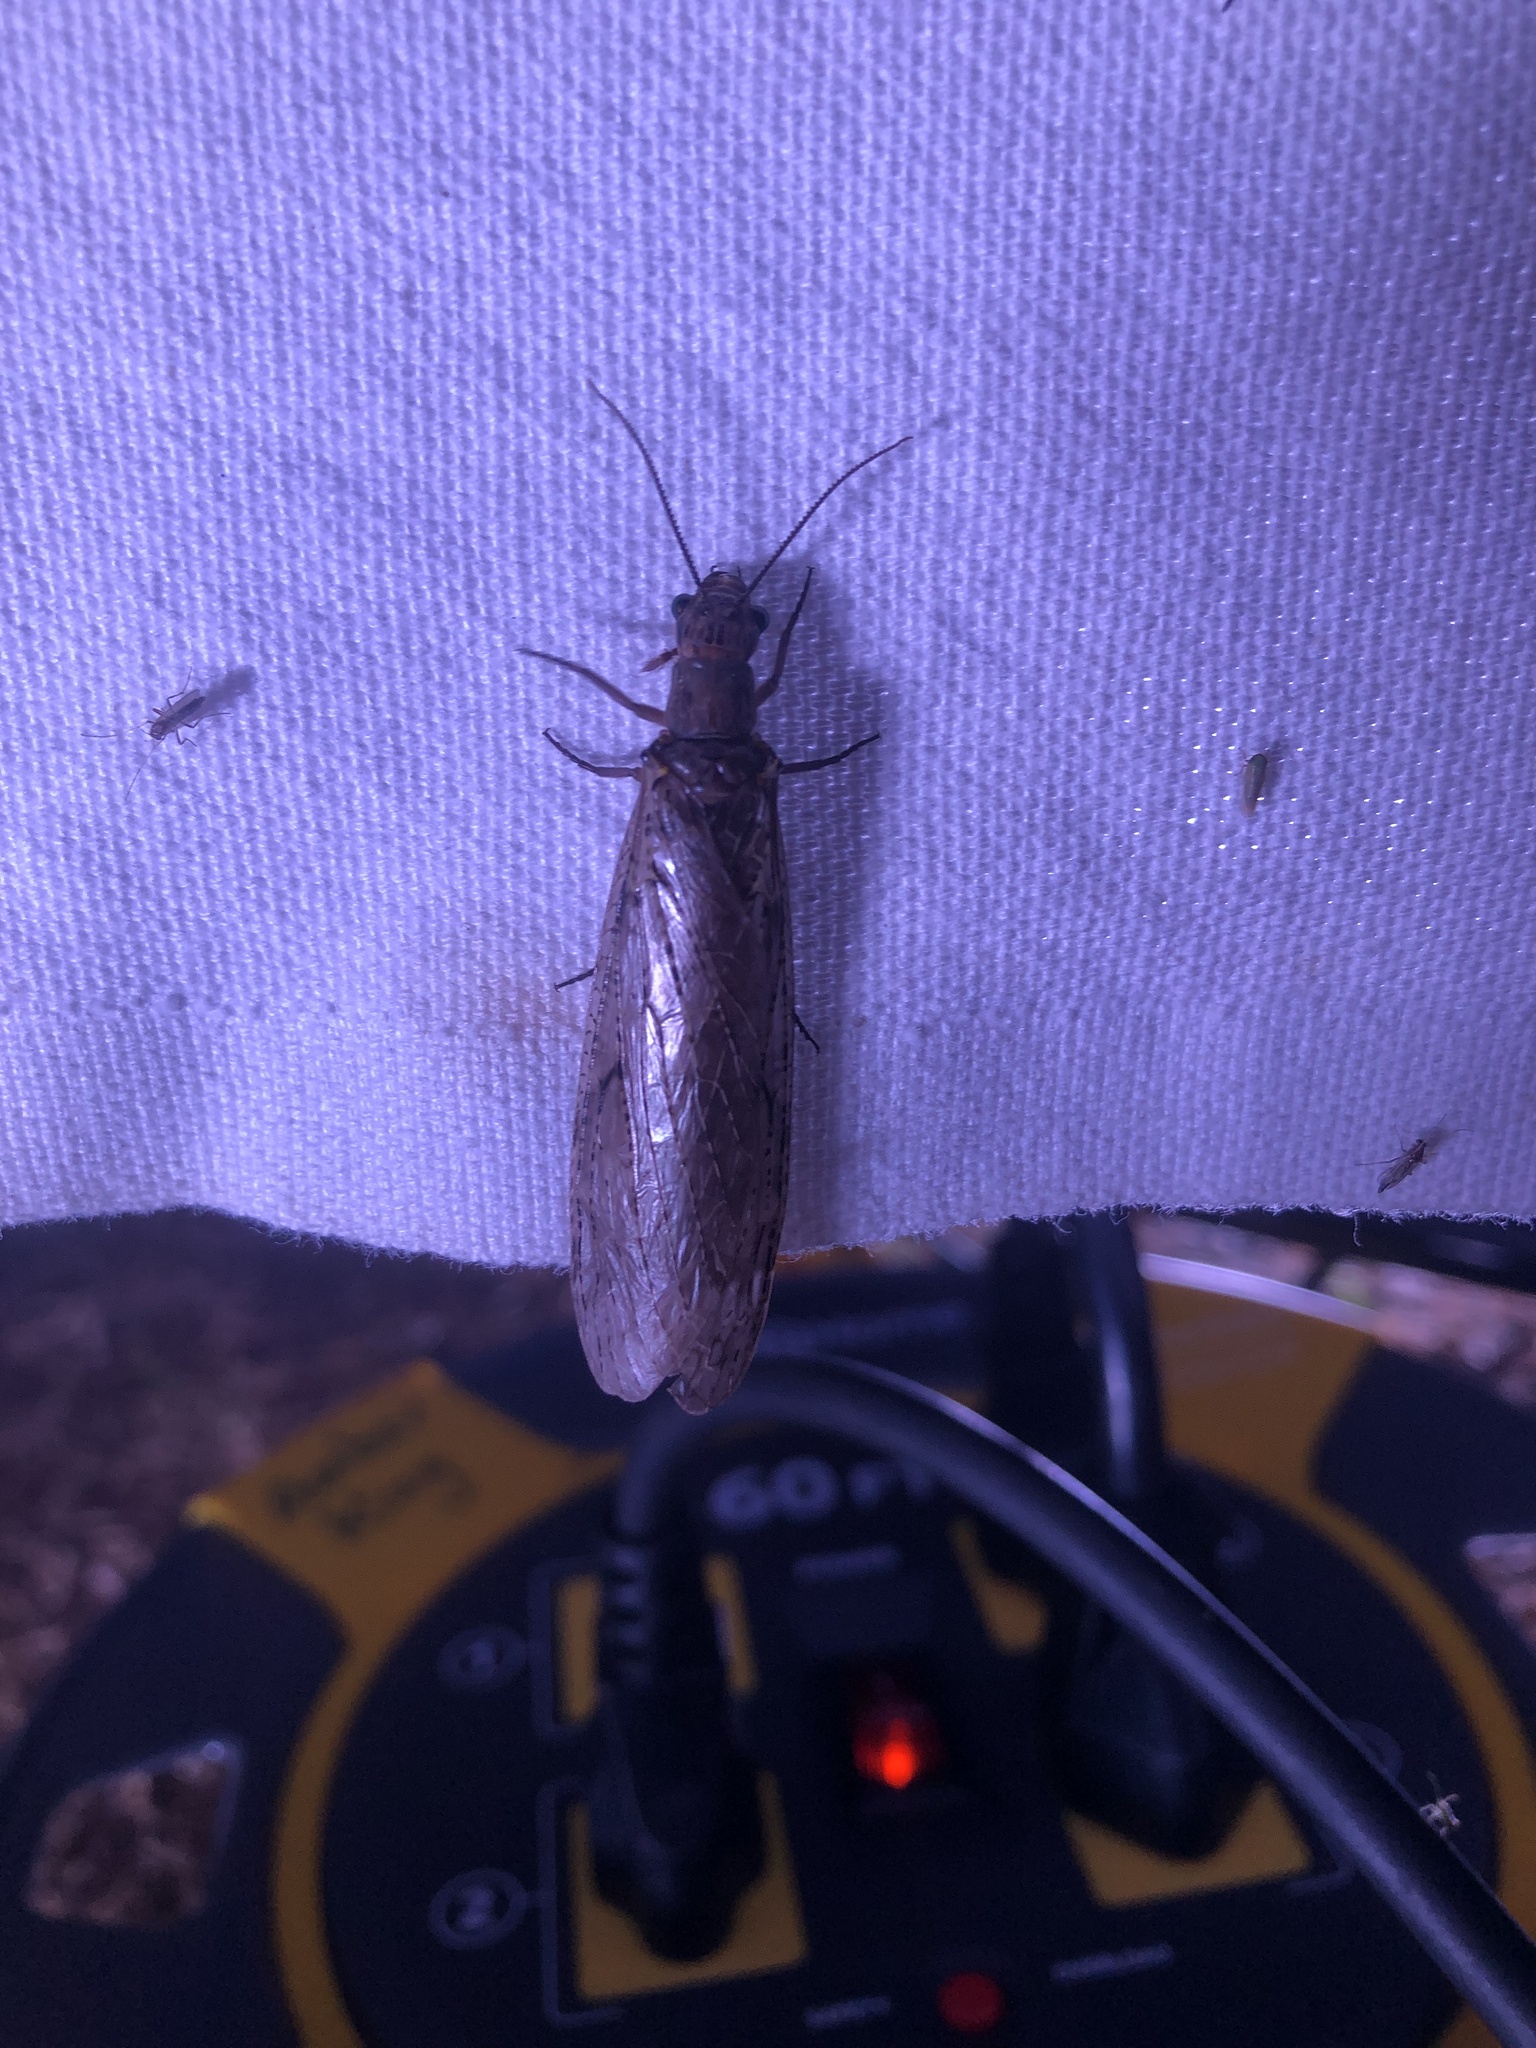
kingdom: Animalia
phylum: Arthropoda
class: Insecta
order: Megaloptera
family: Corydalidae
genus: Chauliodes
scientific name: Chauliodes rastricornis
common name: Spring fishfly
